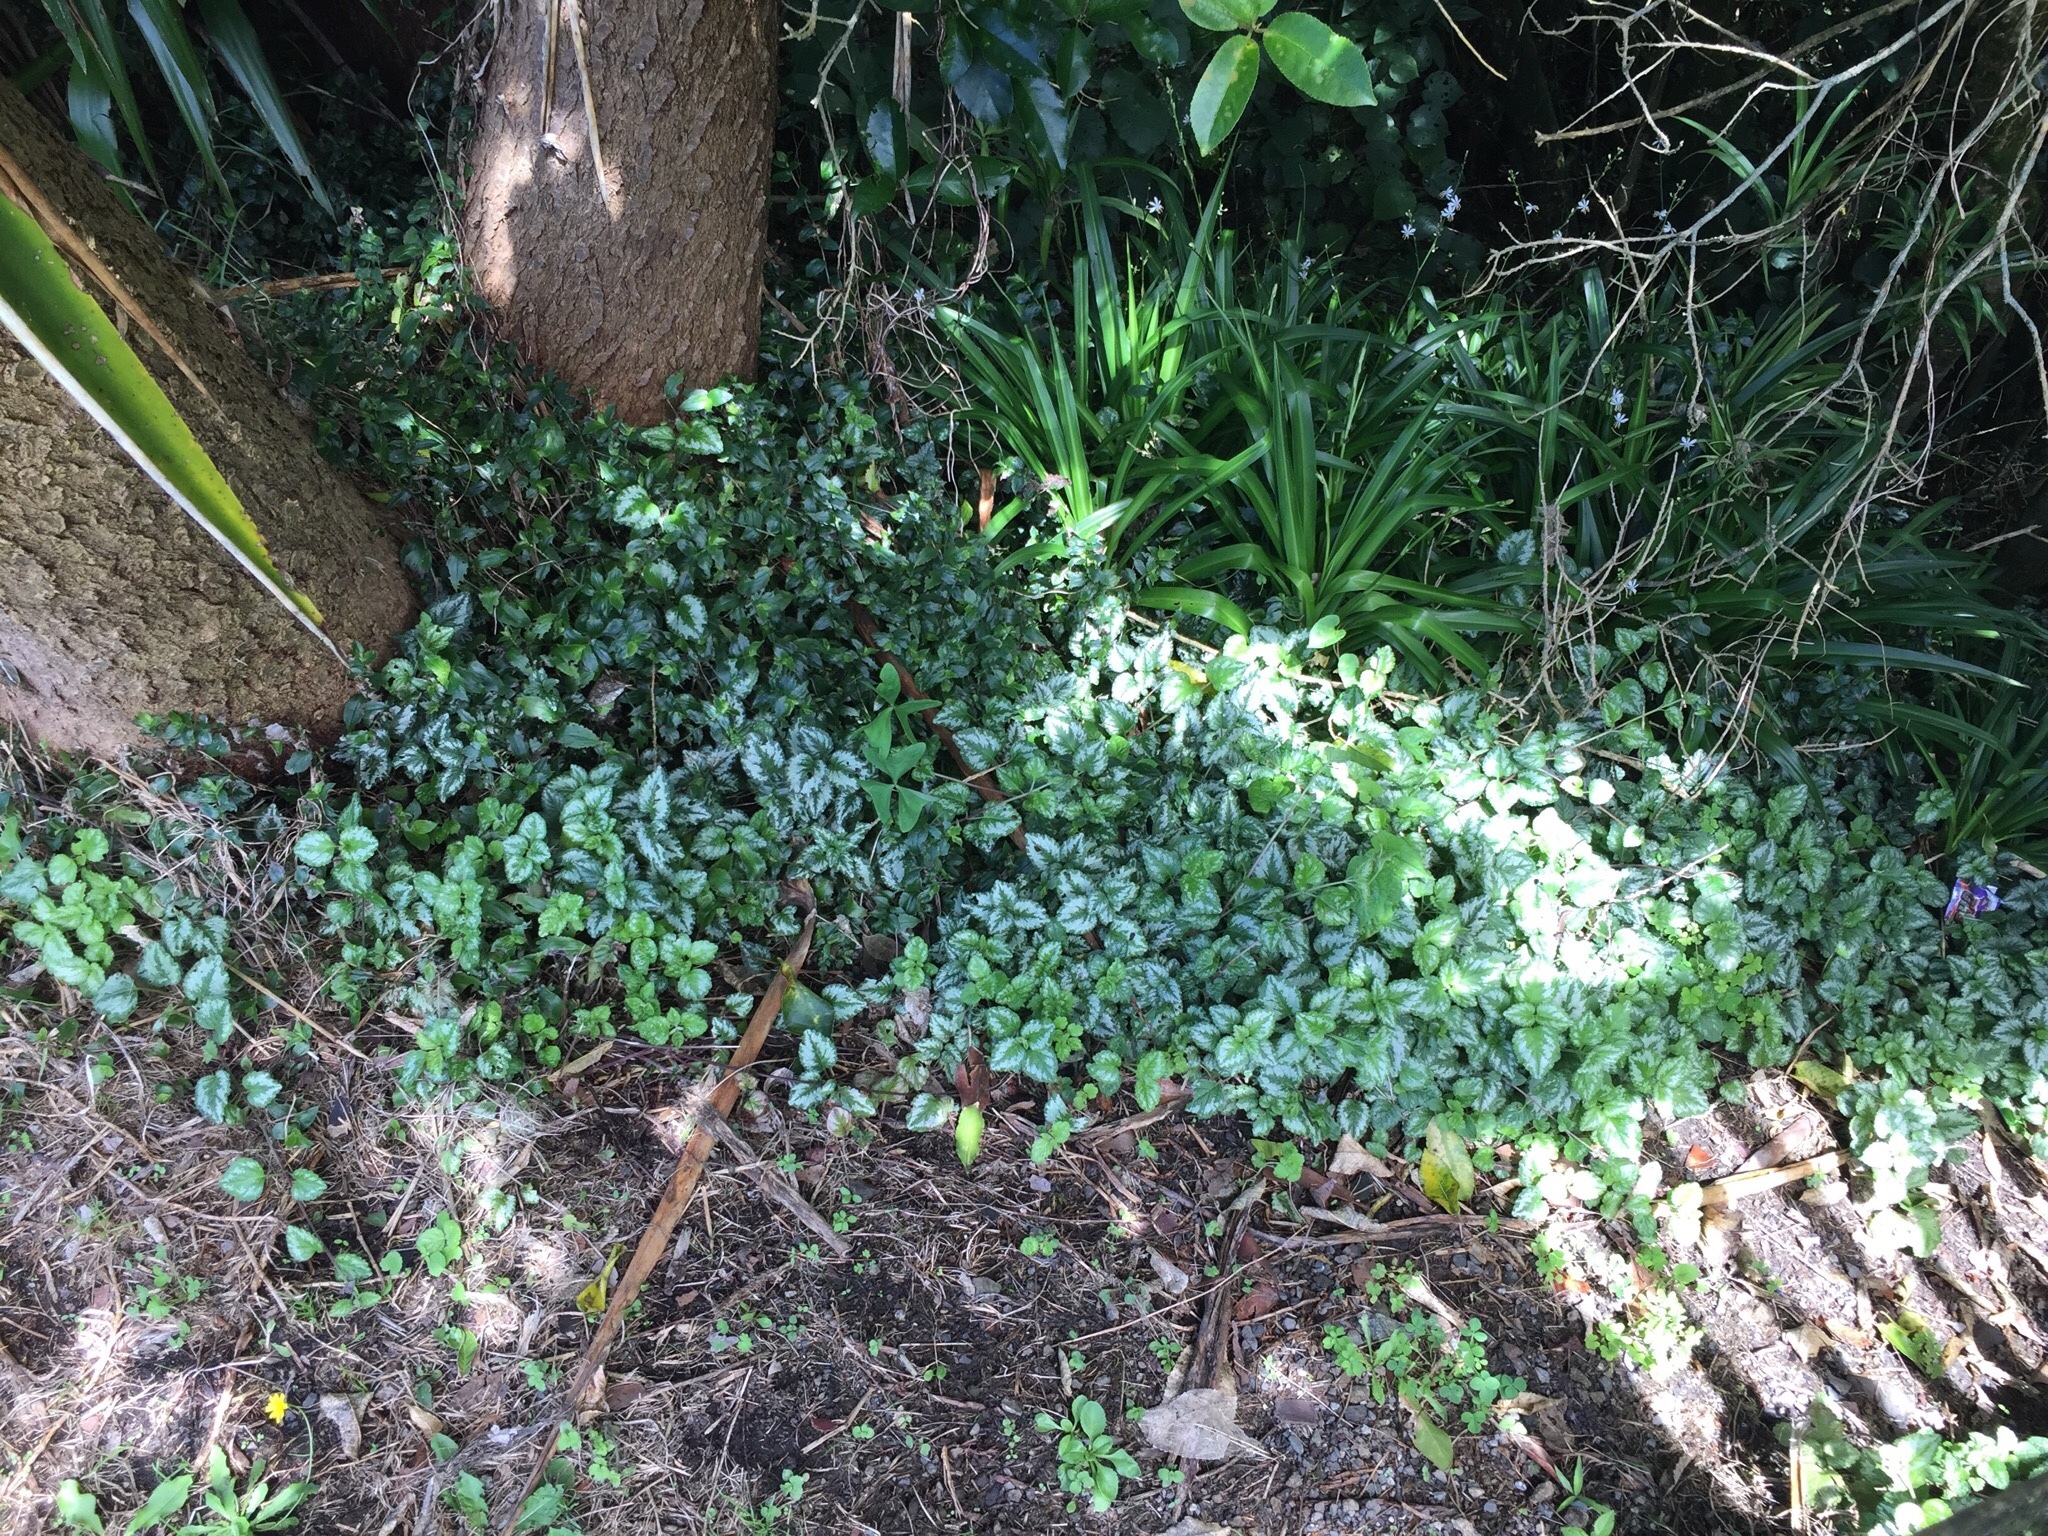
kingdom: Plantae
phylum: Tracheophyta
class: Magnoliopsida
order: Lamiales
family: Lamiaceae
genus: Lamium
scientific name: Lamium galeobdolon
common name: Yellow archangel
